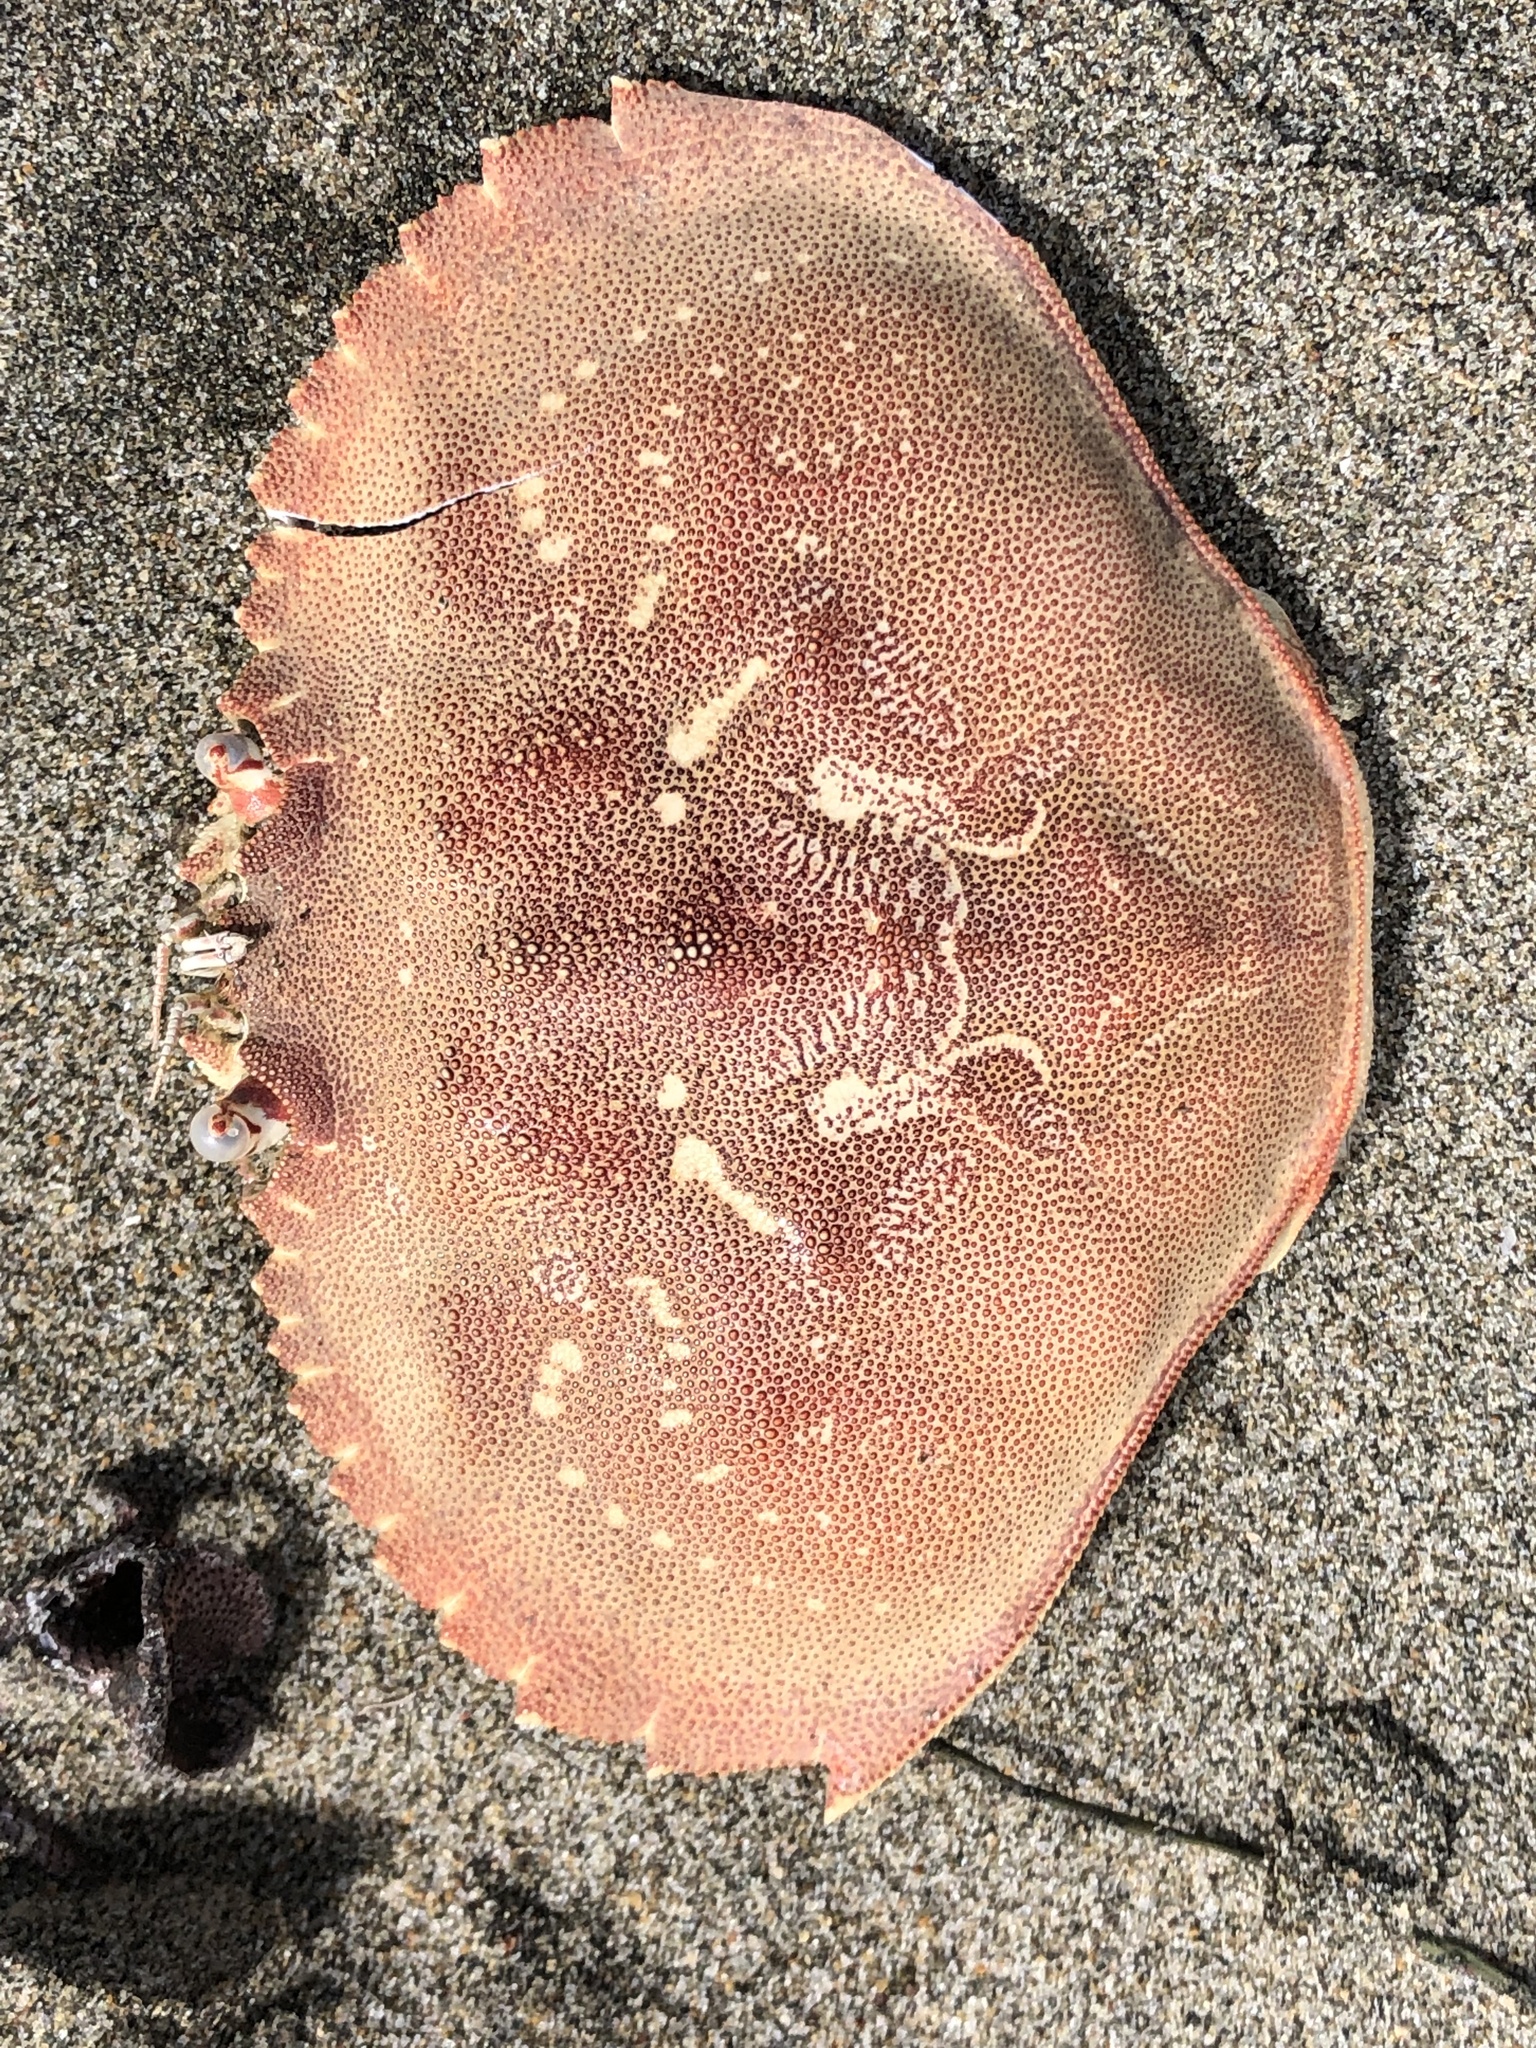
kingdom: Animalia
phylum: Arthropoda
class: Malacostraca
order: Decapoda
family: Cancridae
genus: Metacarcinus
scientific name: Metacarcinus magister
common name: Californian crab
